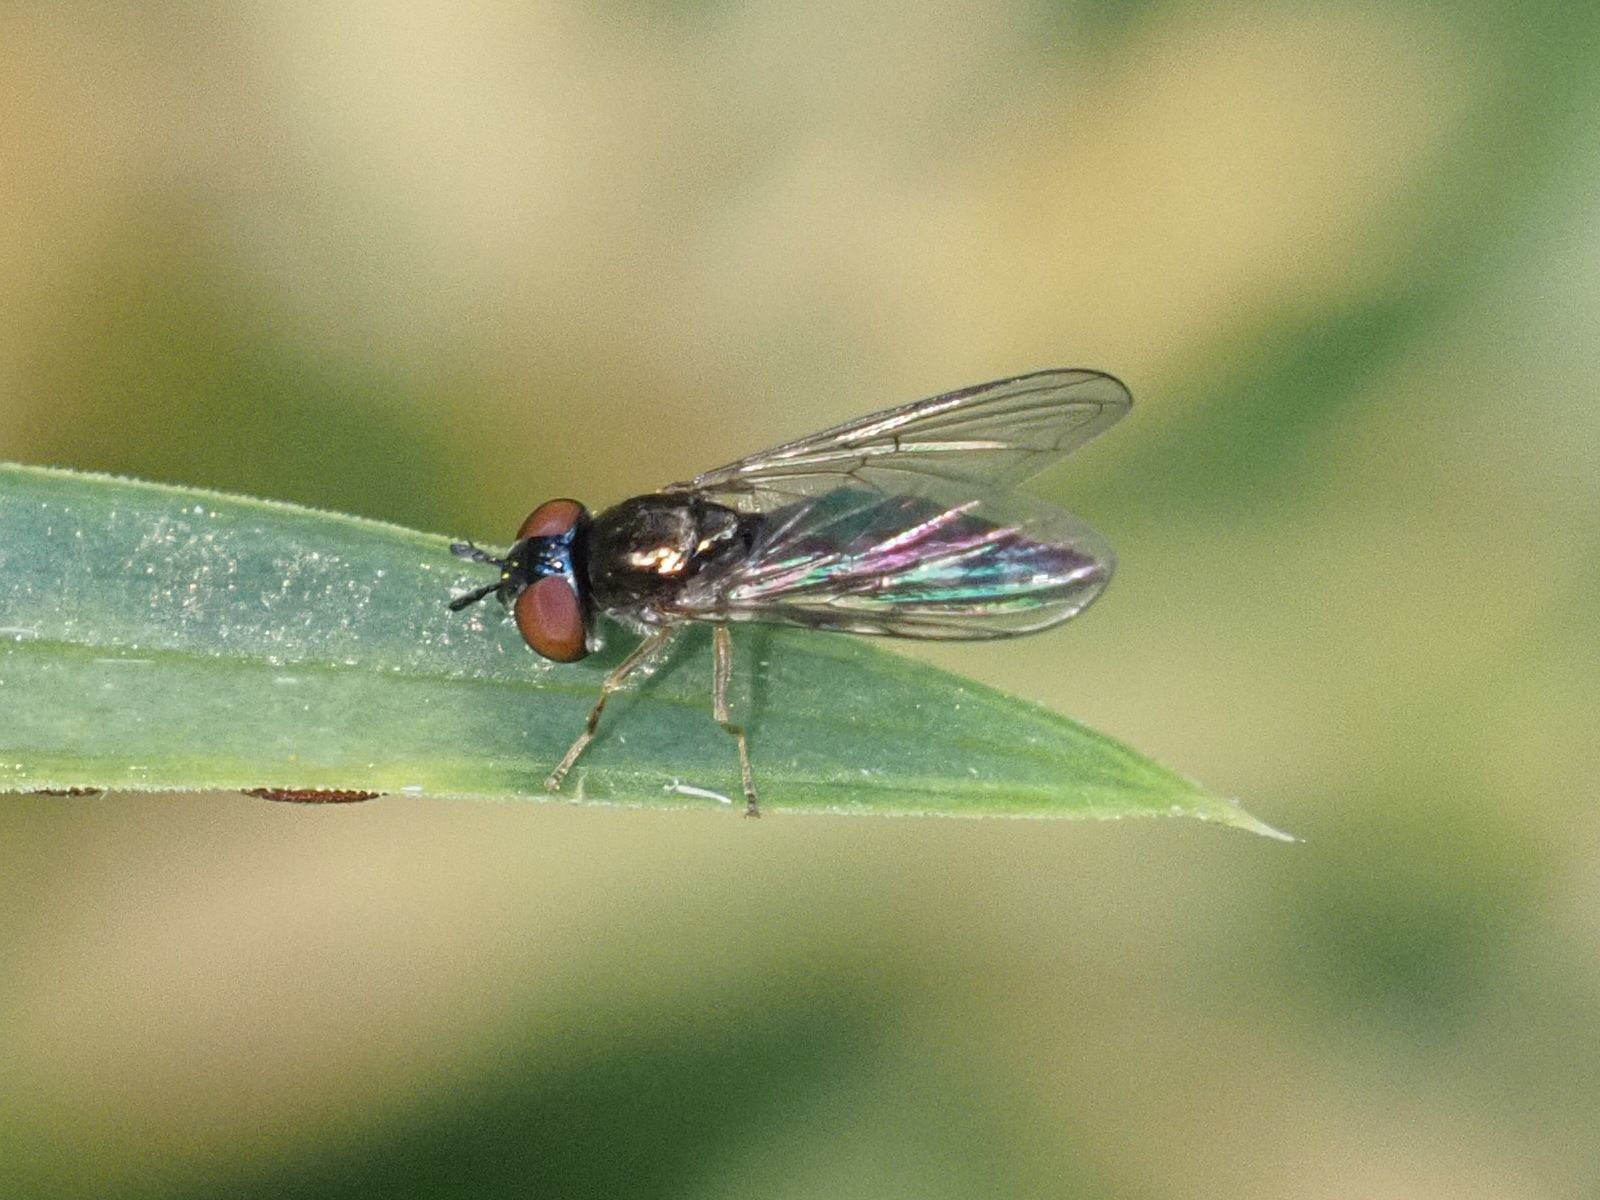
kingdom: Animalia
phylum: Arthropoda
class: Insecta
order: Diptera
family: Syrphidae
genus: Platycheirus
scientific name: Platycheirus albimanus
